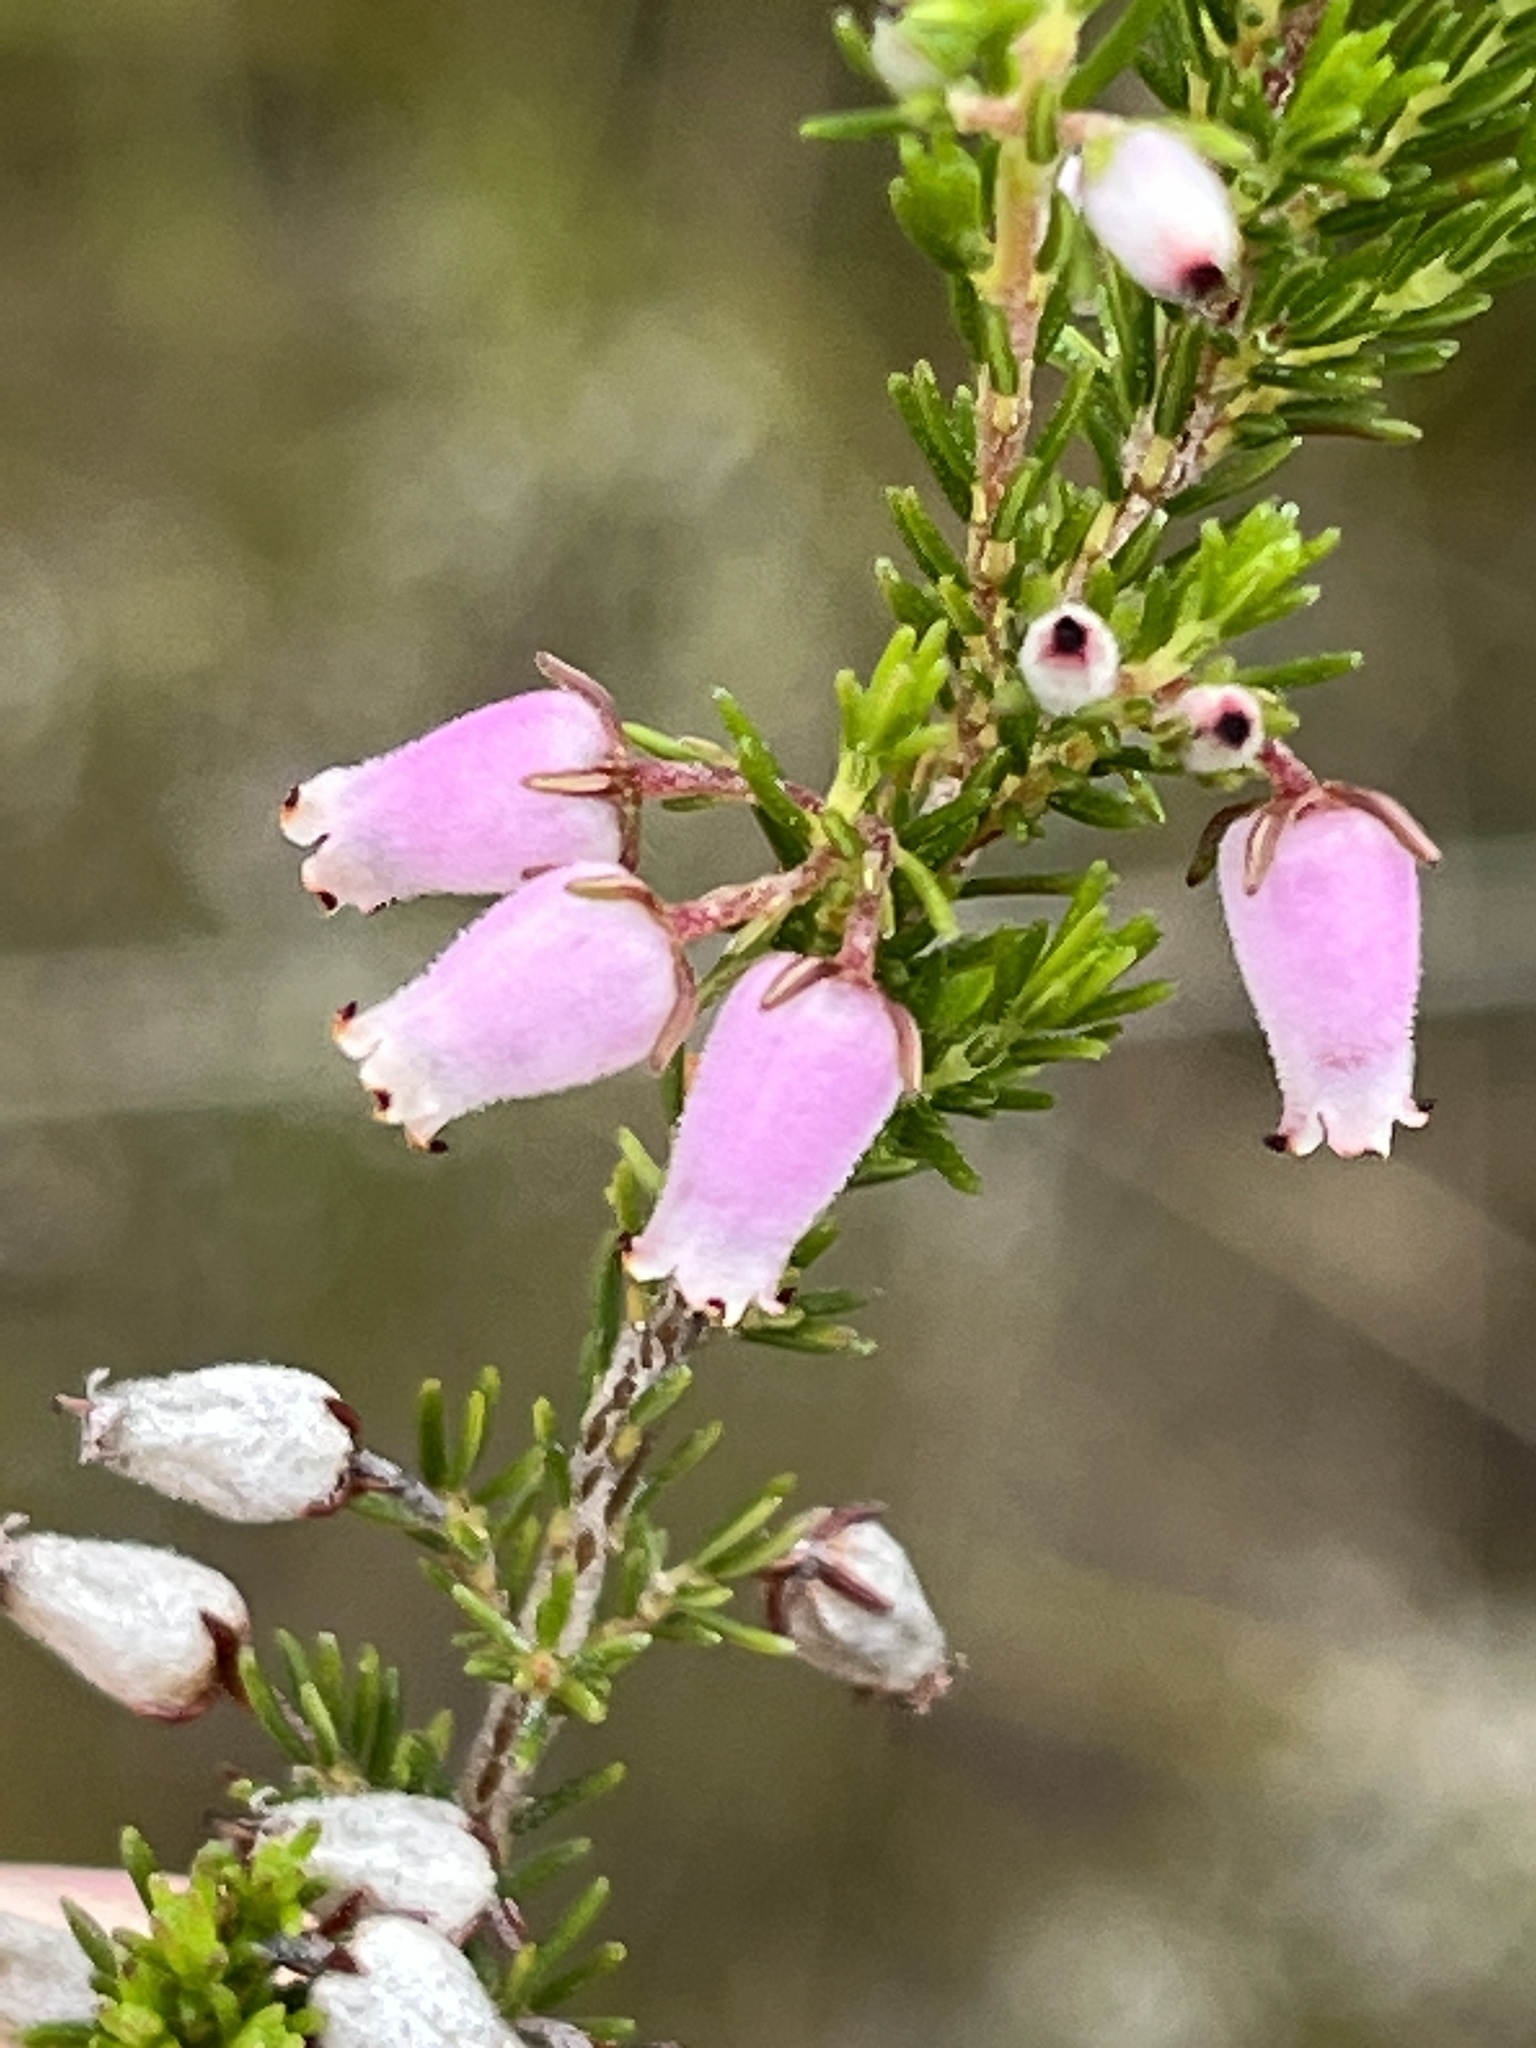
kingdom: Plantae
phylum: Tracheophyta
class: Magnoliopsida
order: Ericales
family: Ericaceae
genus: Erica
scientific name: Erica pubigera
